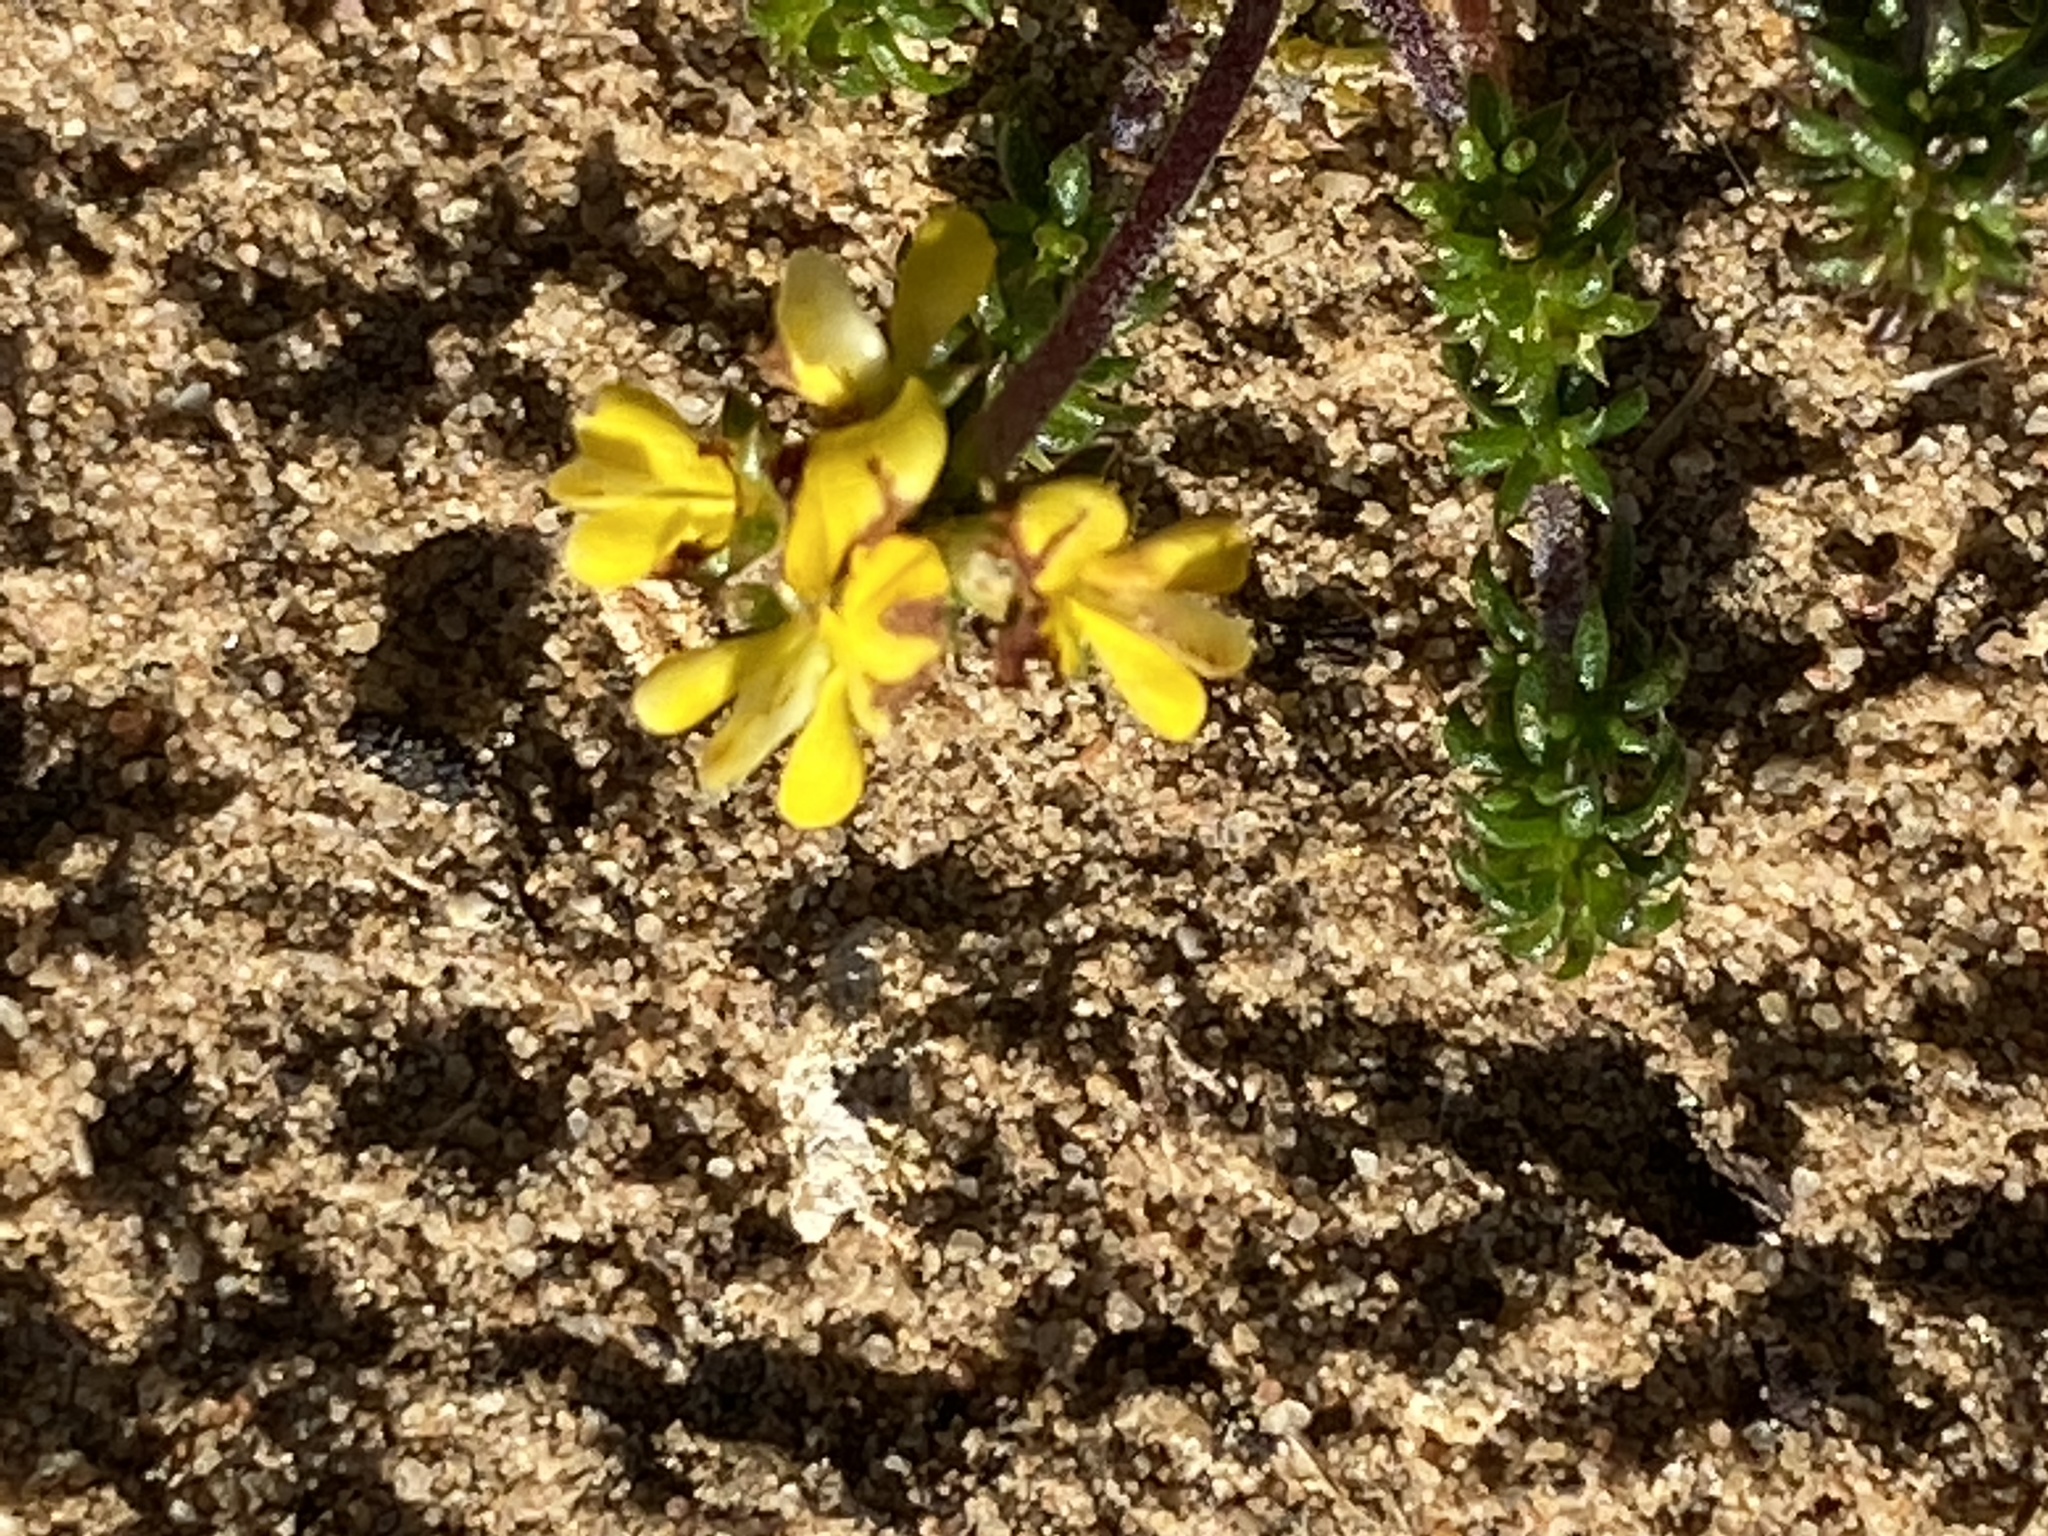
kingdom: Plantae
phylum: Tracheophyta
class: Magnoliopsida
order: Fabales
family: Fabaceae
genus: Aspalathus
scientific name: Aspalathus crassisepala
